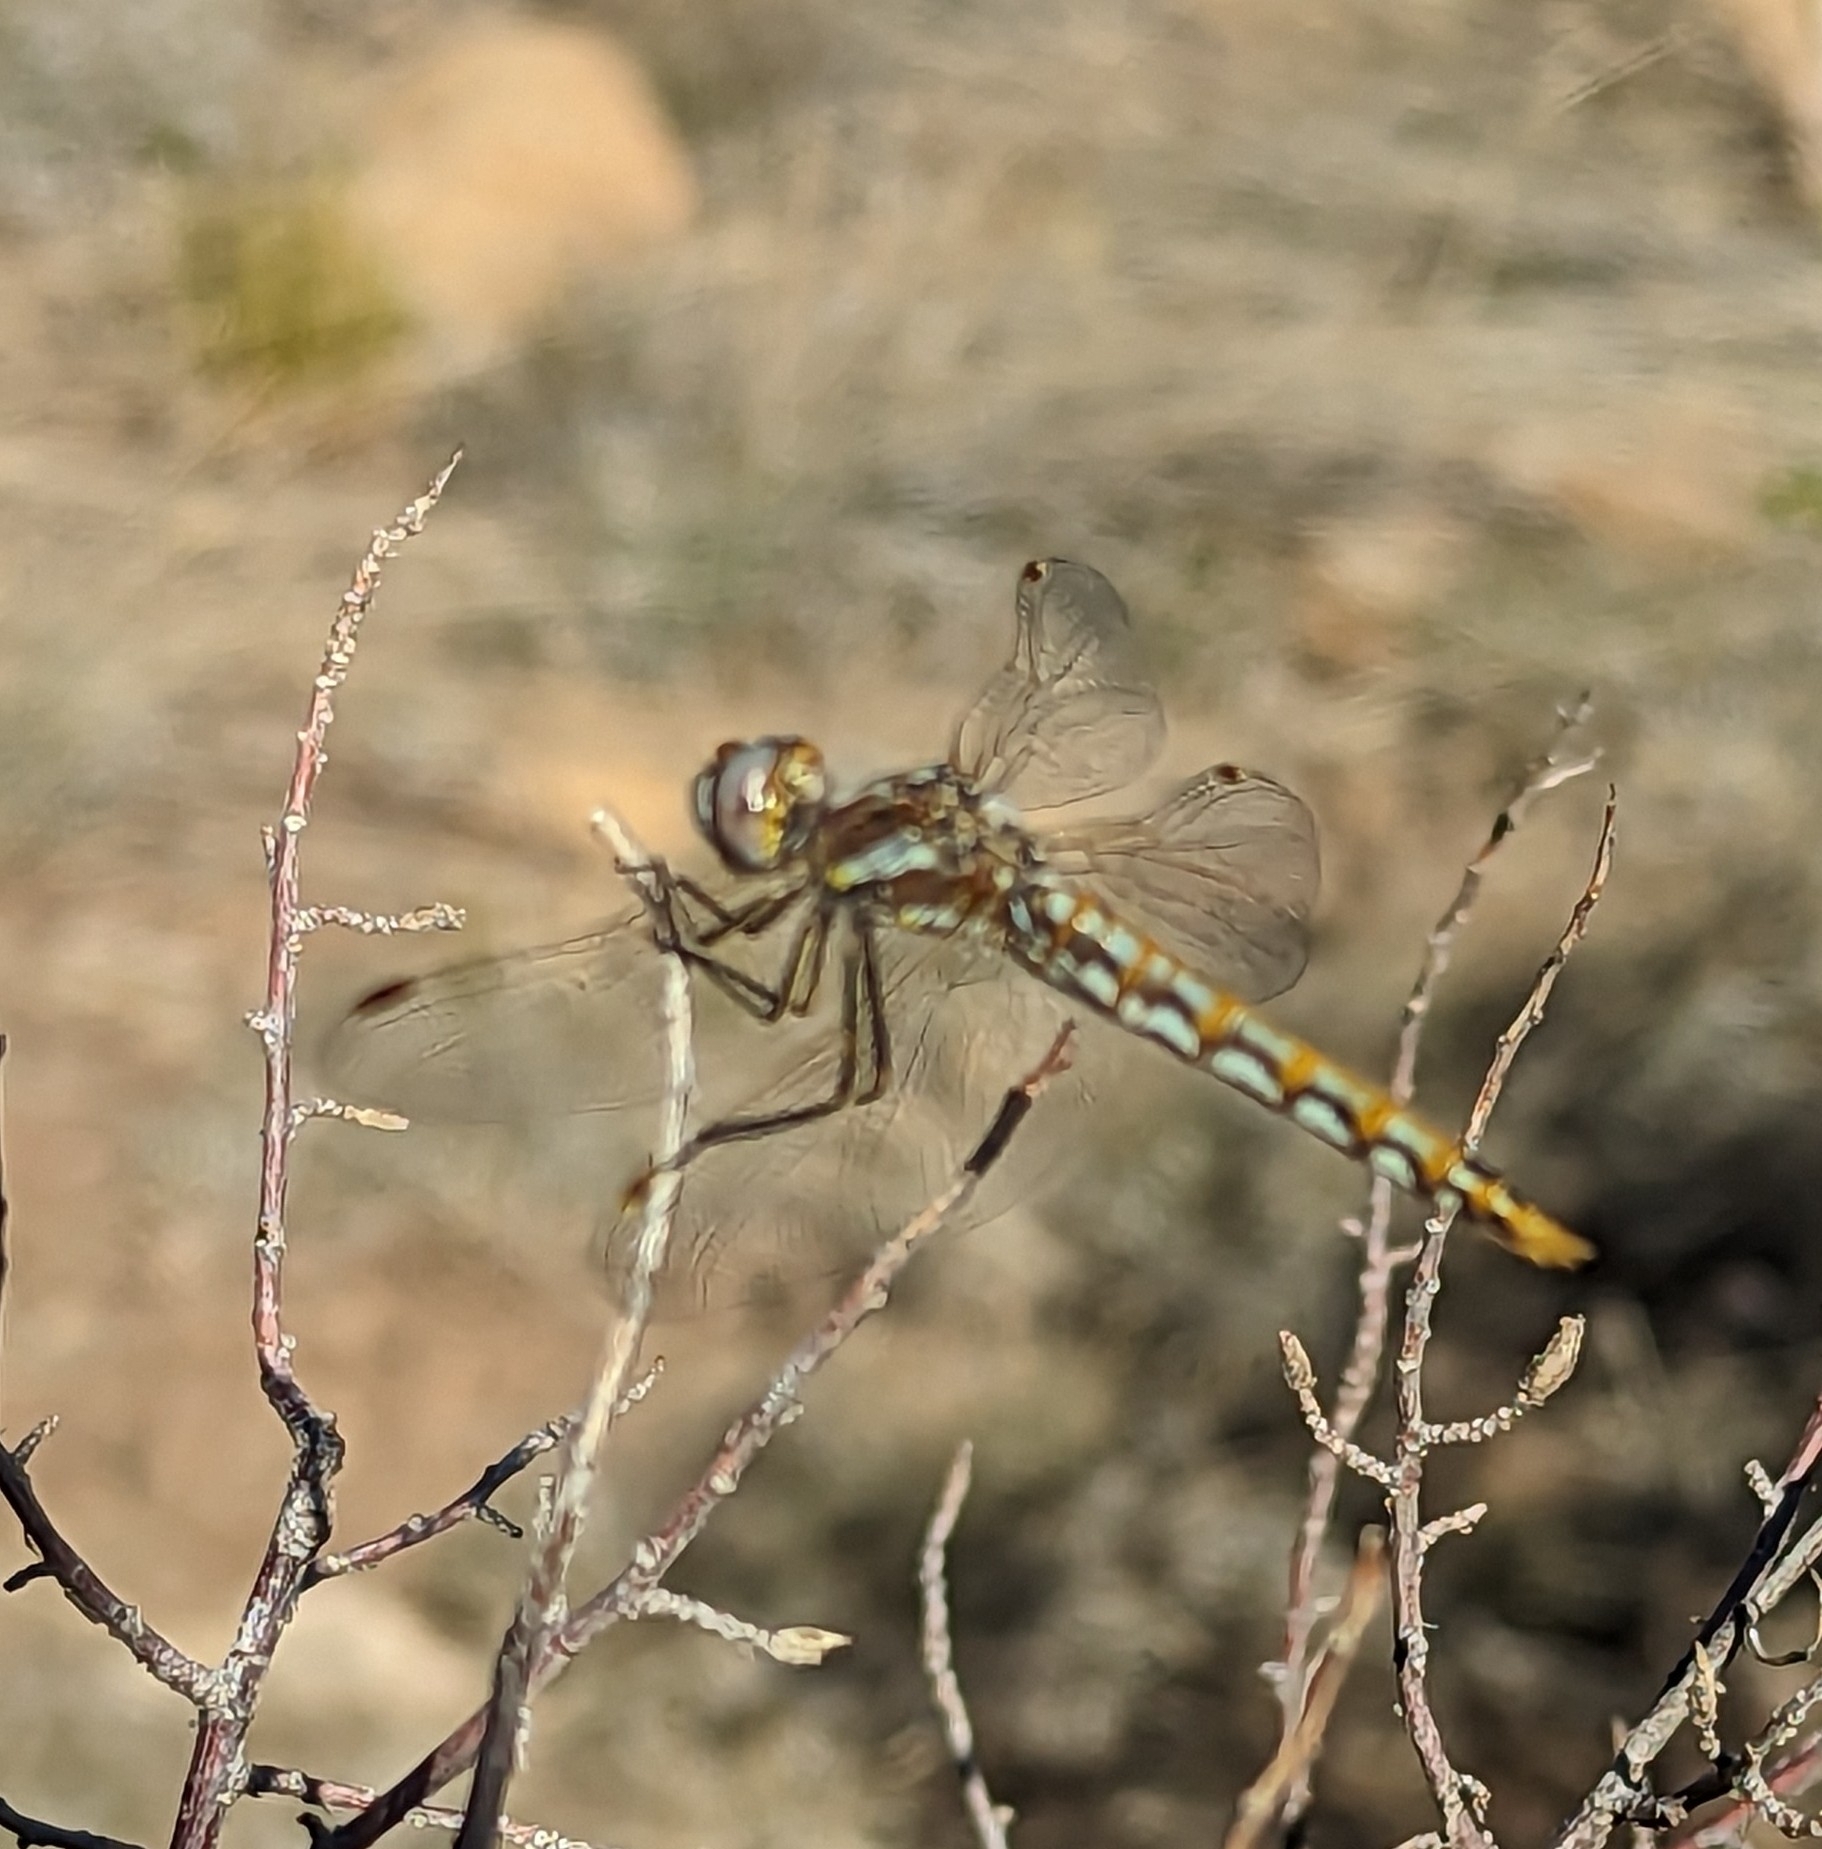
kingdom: Animalia
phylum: Arthropoda
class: Insecta
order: Odonata
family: Libellulidae
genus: Sympetrum
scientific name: Sympetrum corruptum
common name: Variegated meadowhawk
